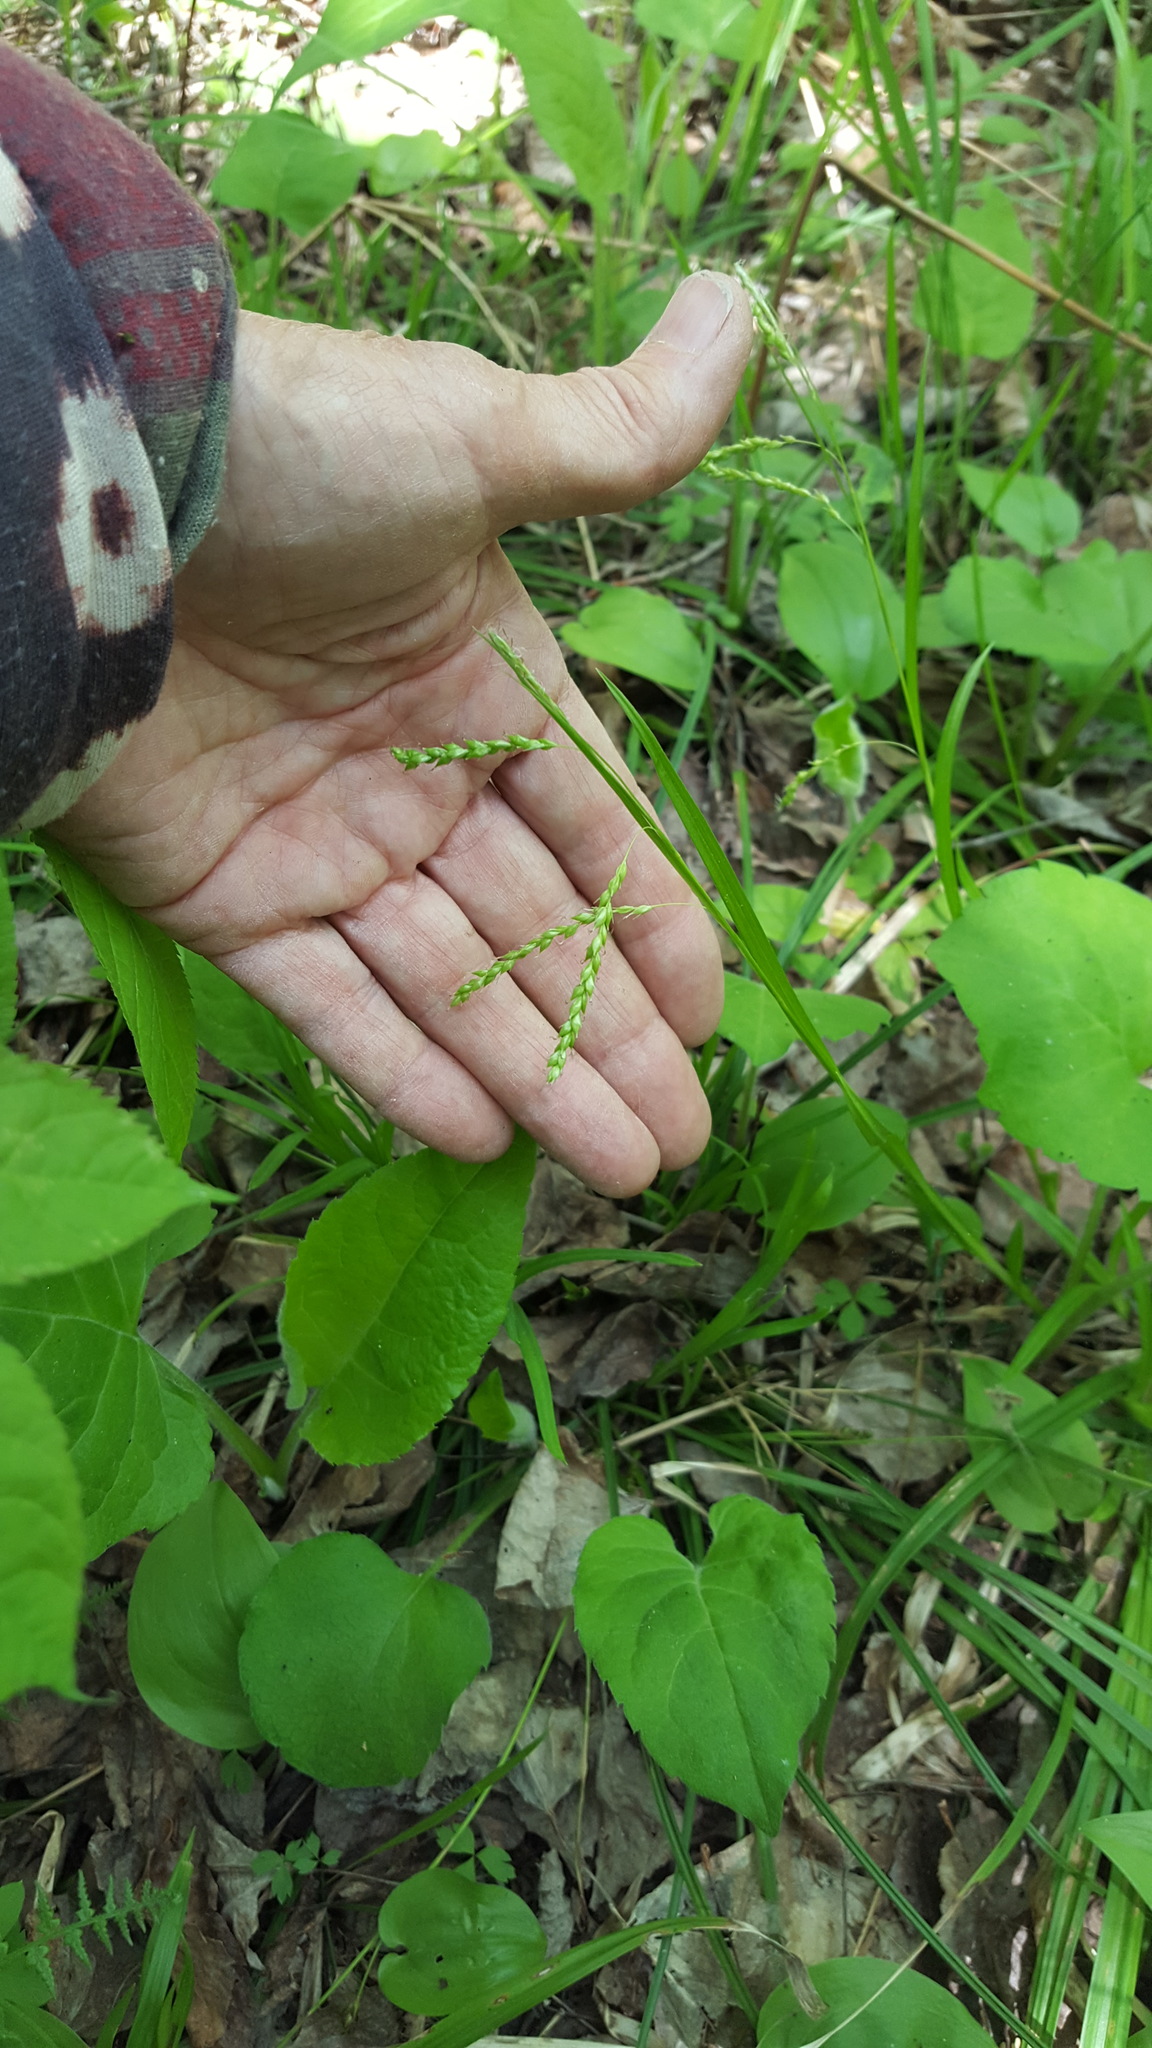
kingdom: Plantae
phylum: Tracheophyta
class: Liliopsida
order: Poales
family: Cyperaceae
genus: Carex
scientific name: Carex arctata
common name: Black sedge
